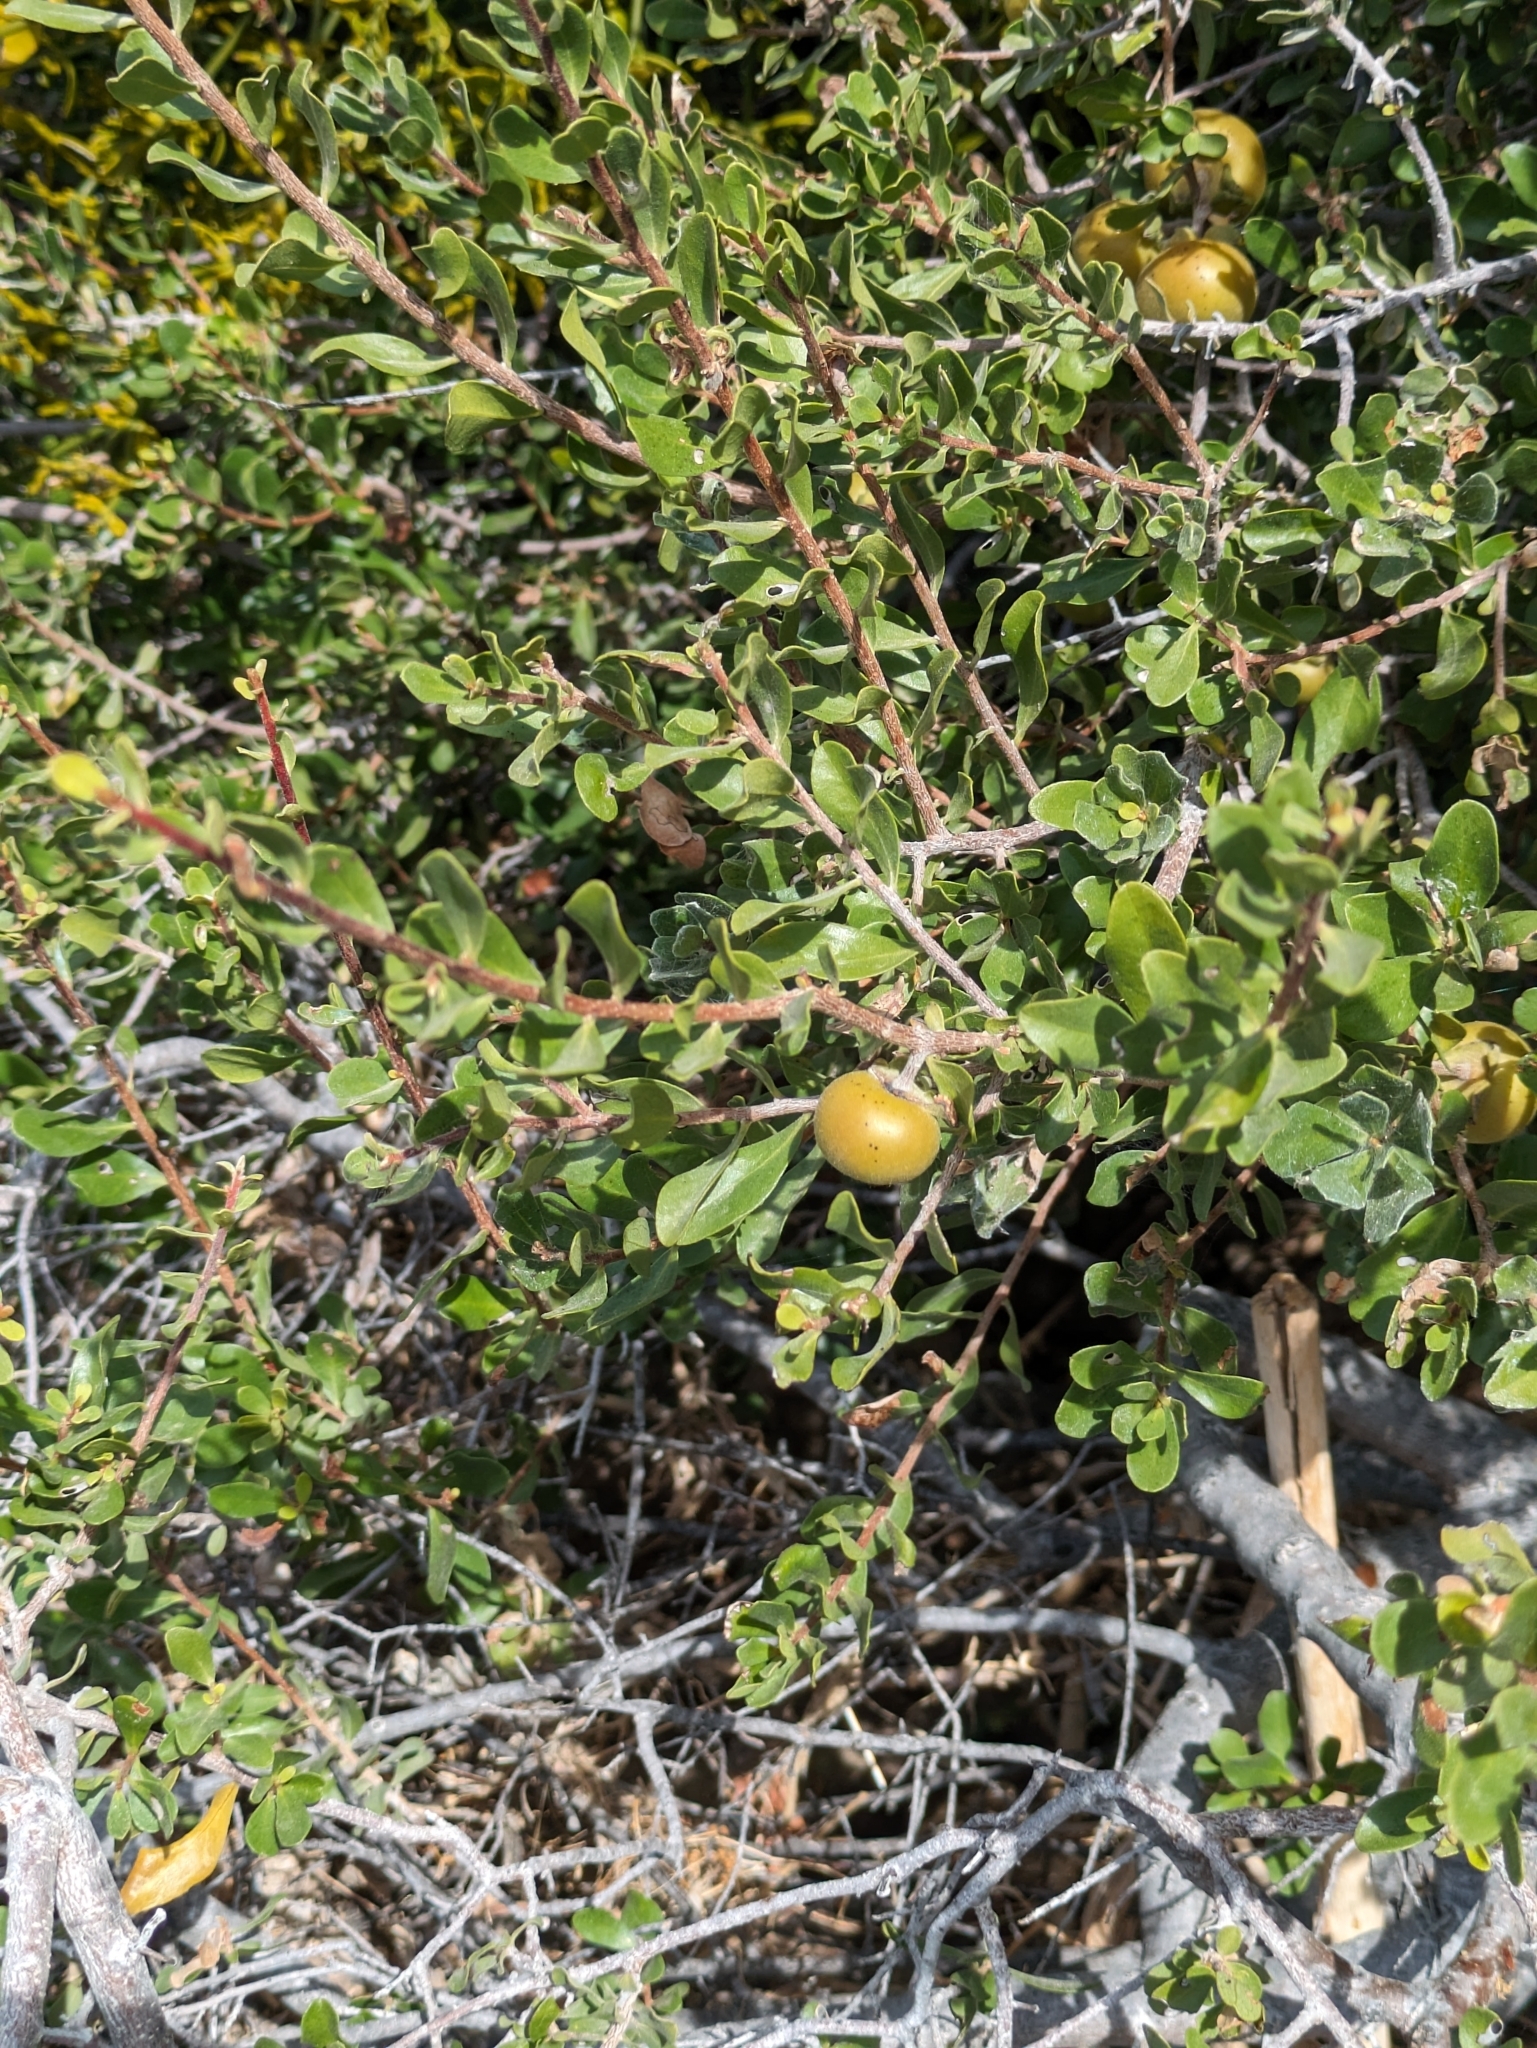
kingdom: Plantae
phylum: Tracheophyta
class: Magnoliopsida
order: Ericales
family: Ebenaceae
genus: Diospyros
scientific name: Diospyros intricata
